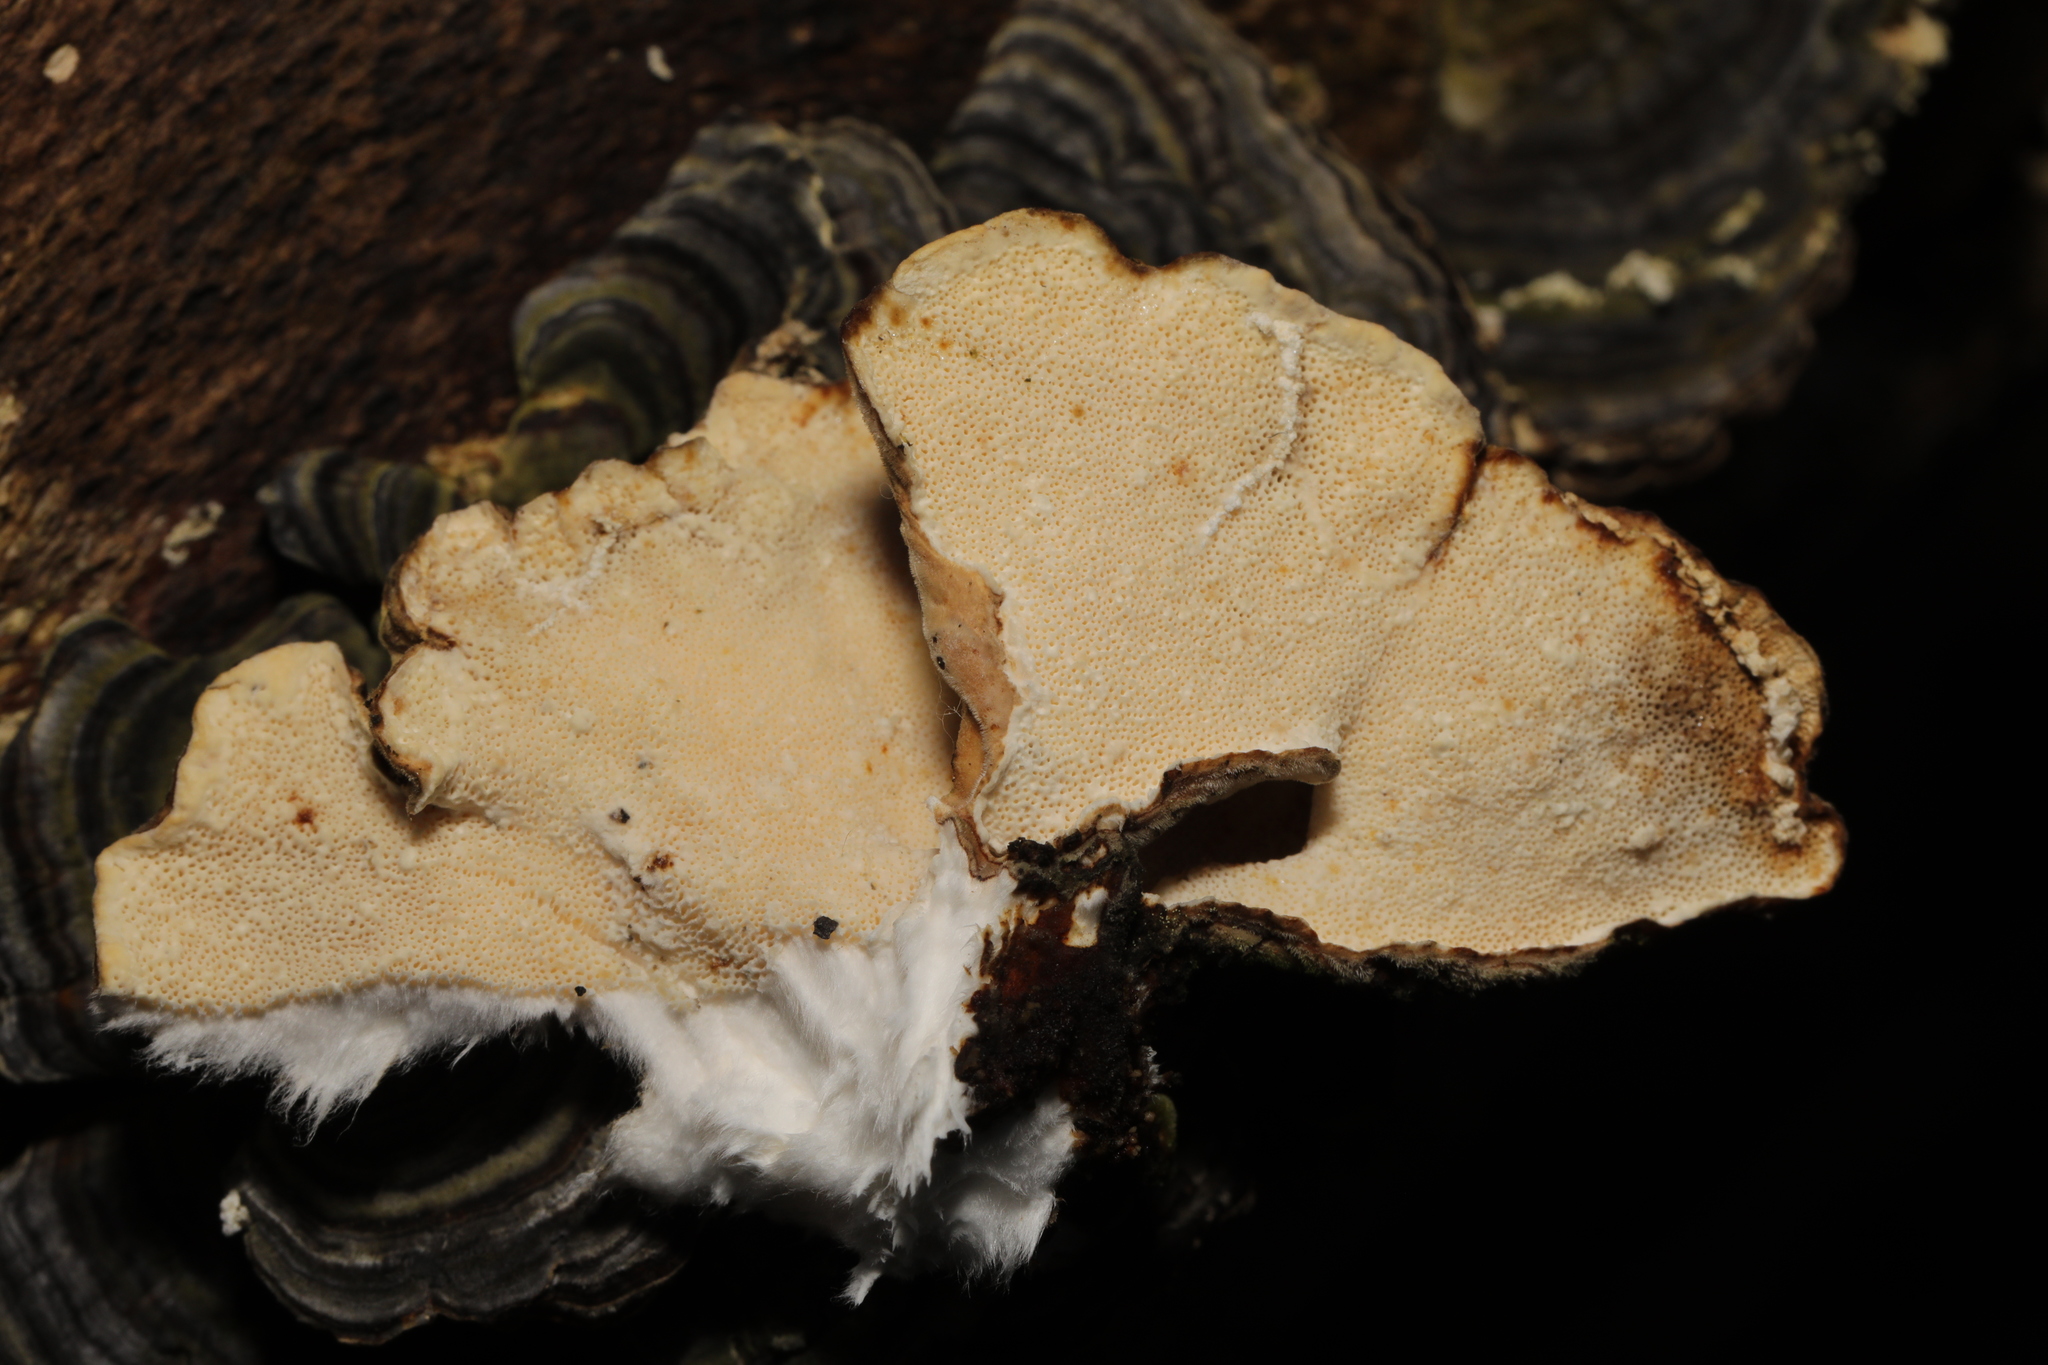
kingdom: Fungi
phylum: Basidiomycota
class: Agaricomycetes
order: Polyporales
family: Polyporaceae
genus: Trametes
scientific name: Trametes versicolor
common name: Turkeytail
